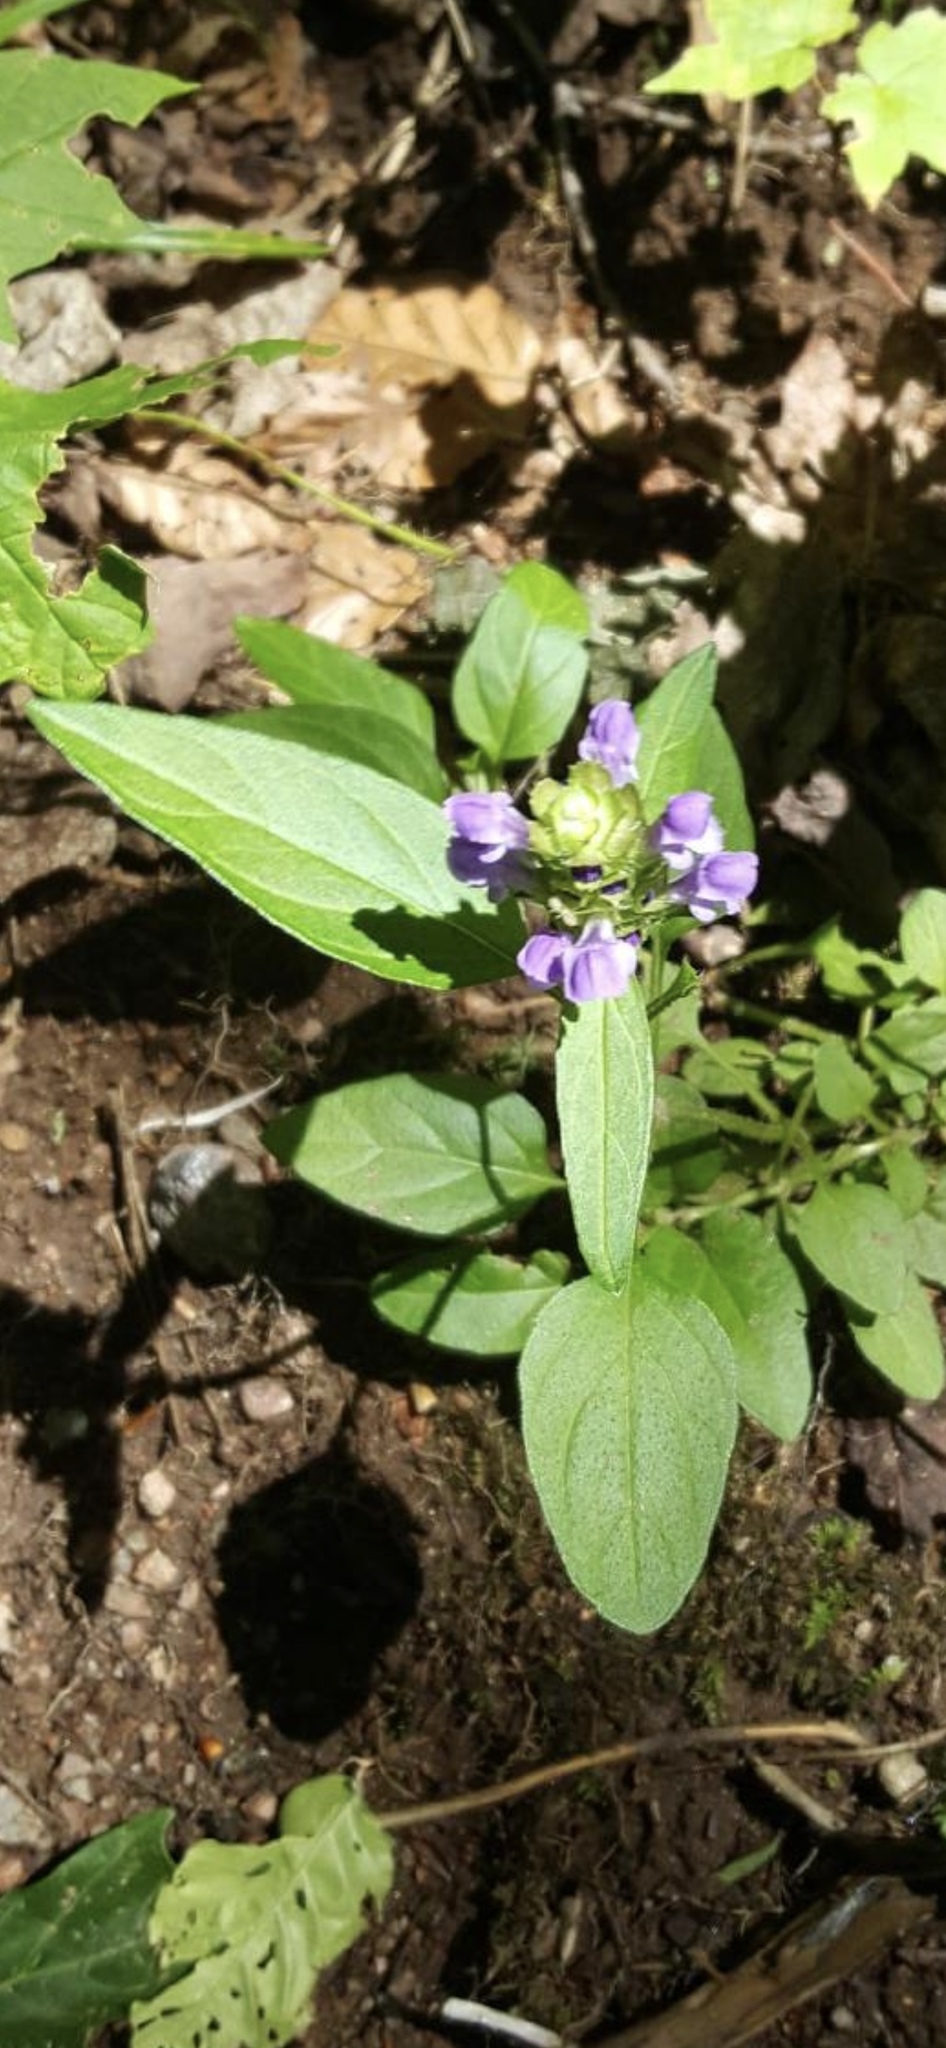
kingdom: Plantae
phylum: Tracheophyta
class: Magnoliopsida
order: Lamiales
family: Lamiaceae
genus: Prunella
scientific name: Prunella vulgaris
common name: Heal-all
